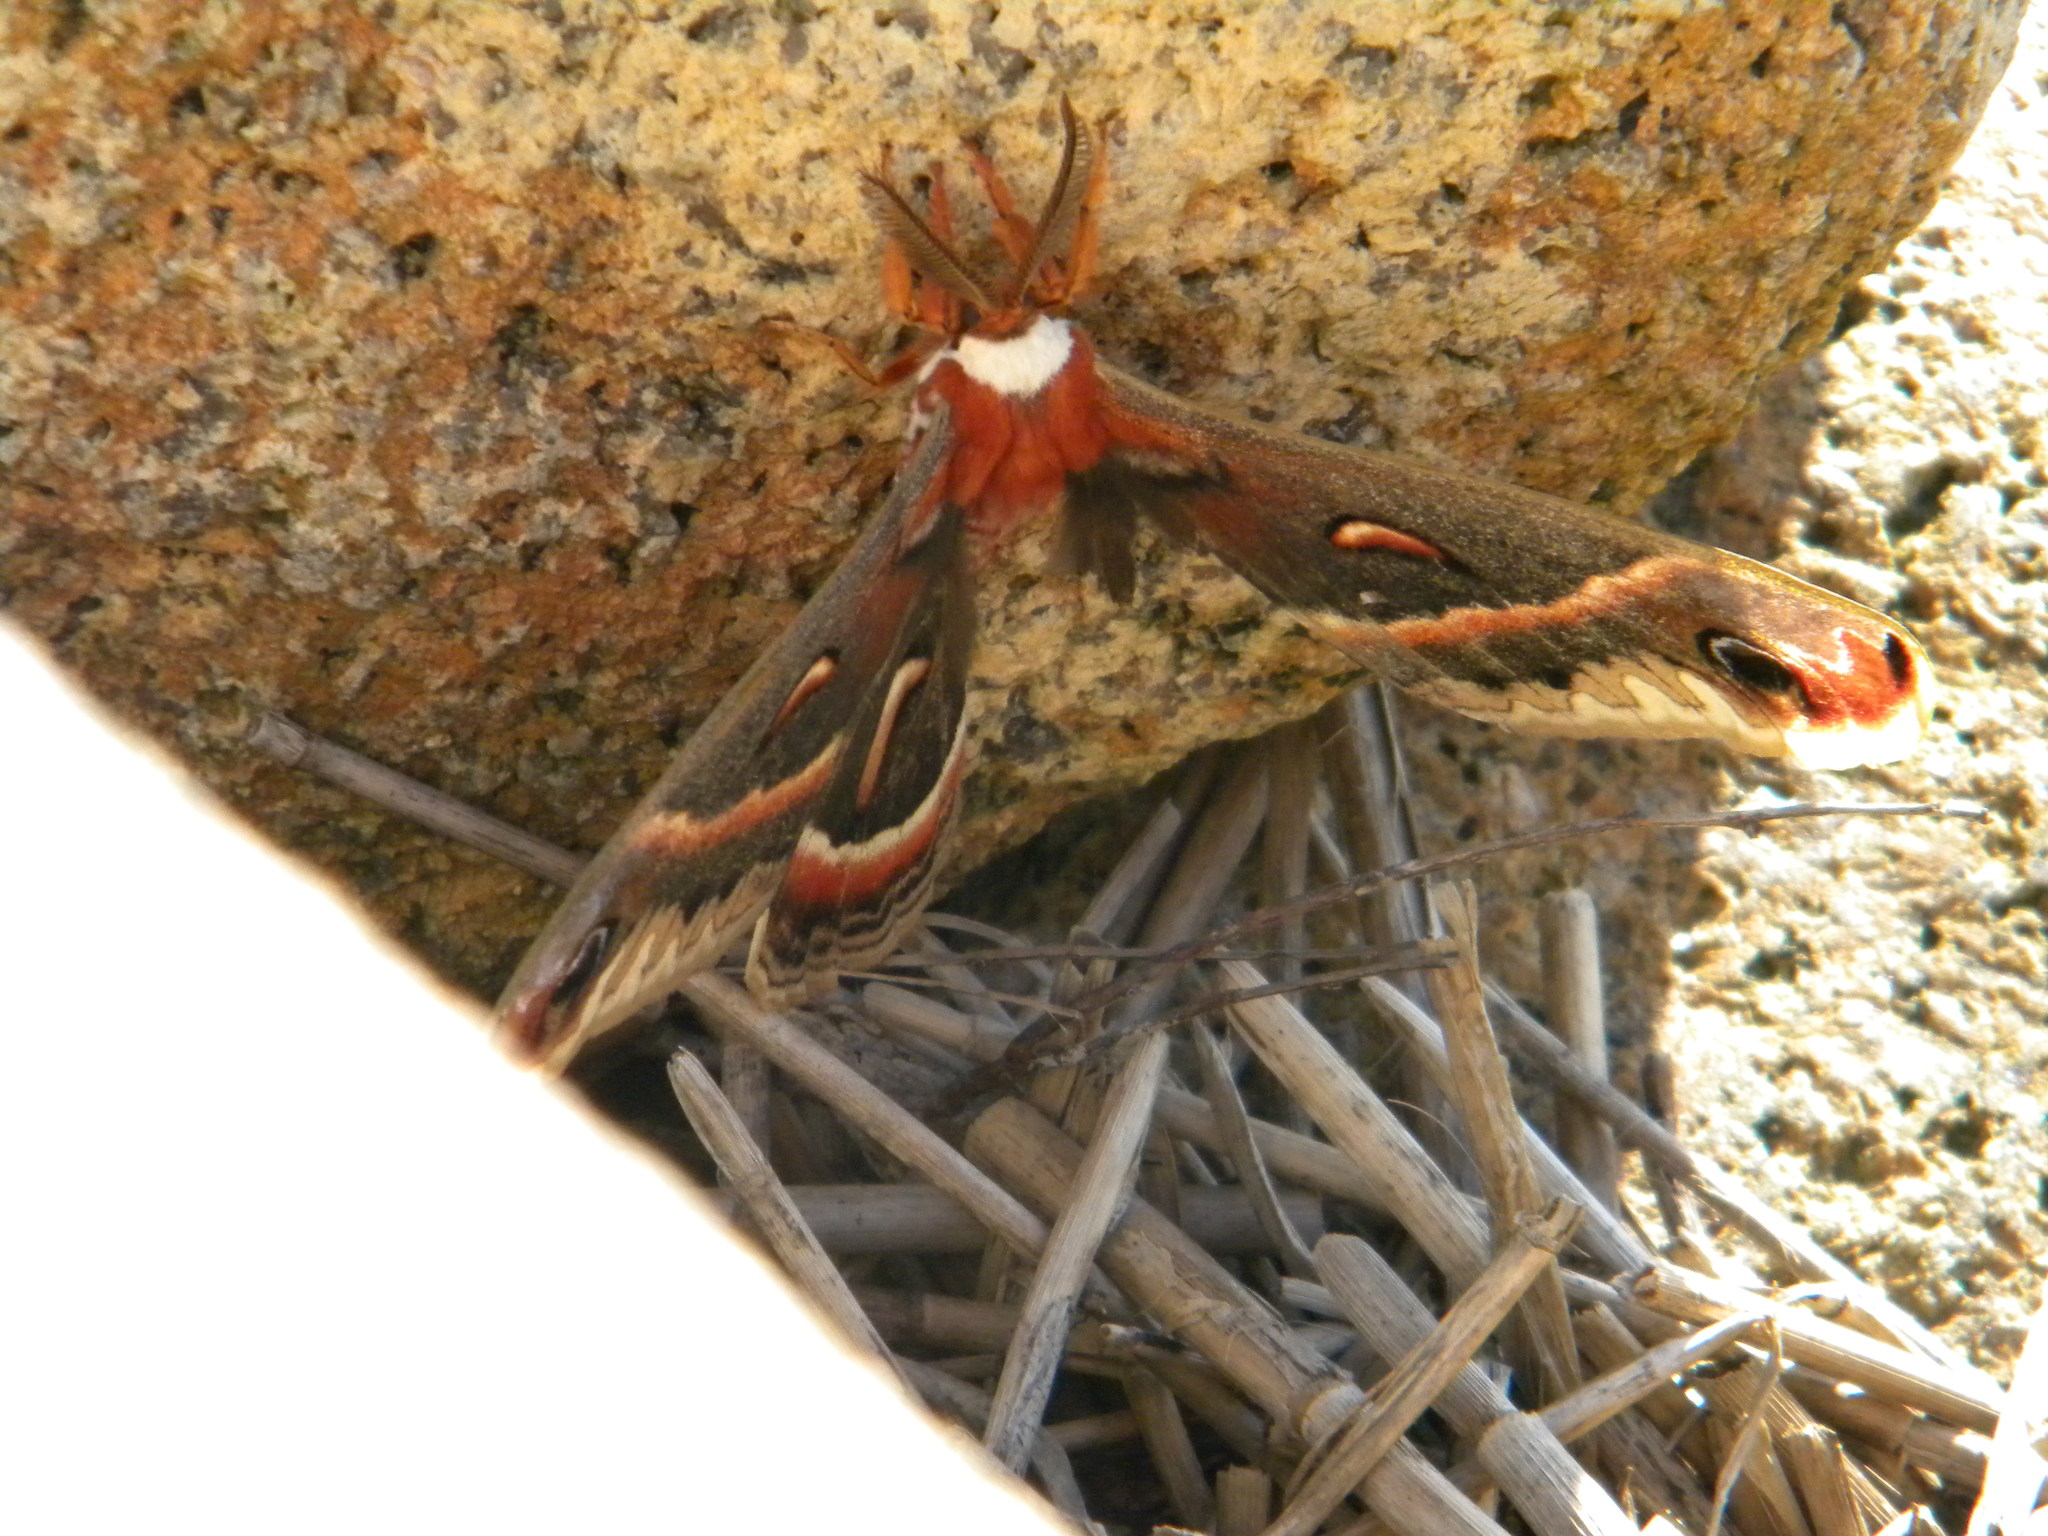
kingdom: Animalia
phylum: Arthropoda
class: Insecta
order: Lepidoptera
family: Saturniidae
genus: Hyalophora
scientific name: Hyalophora cecropia
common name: Cecropia silkmoth
